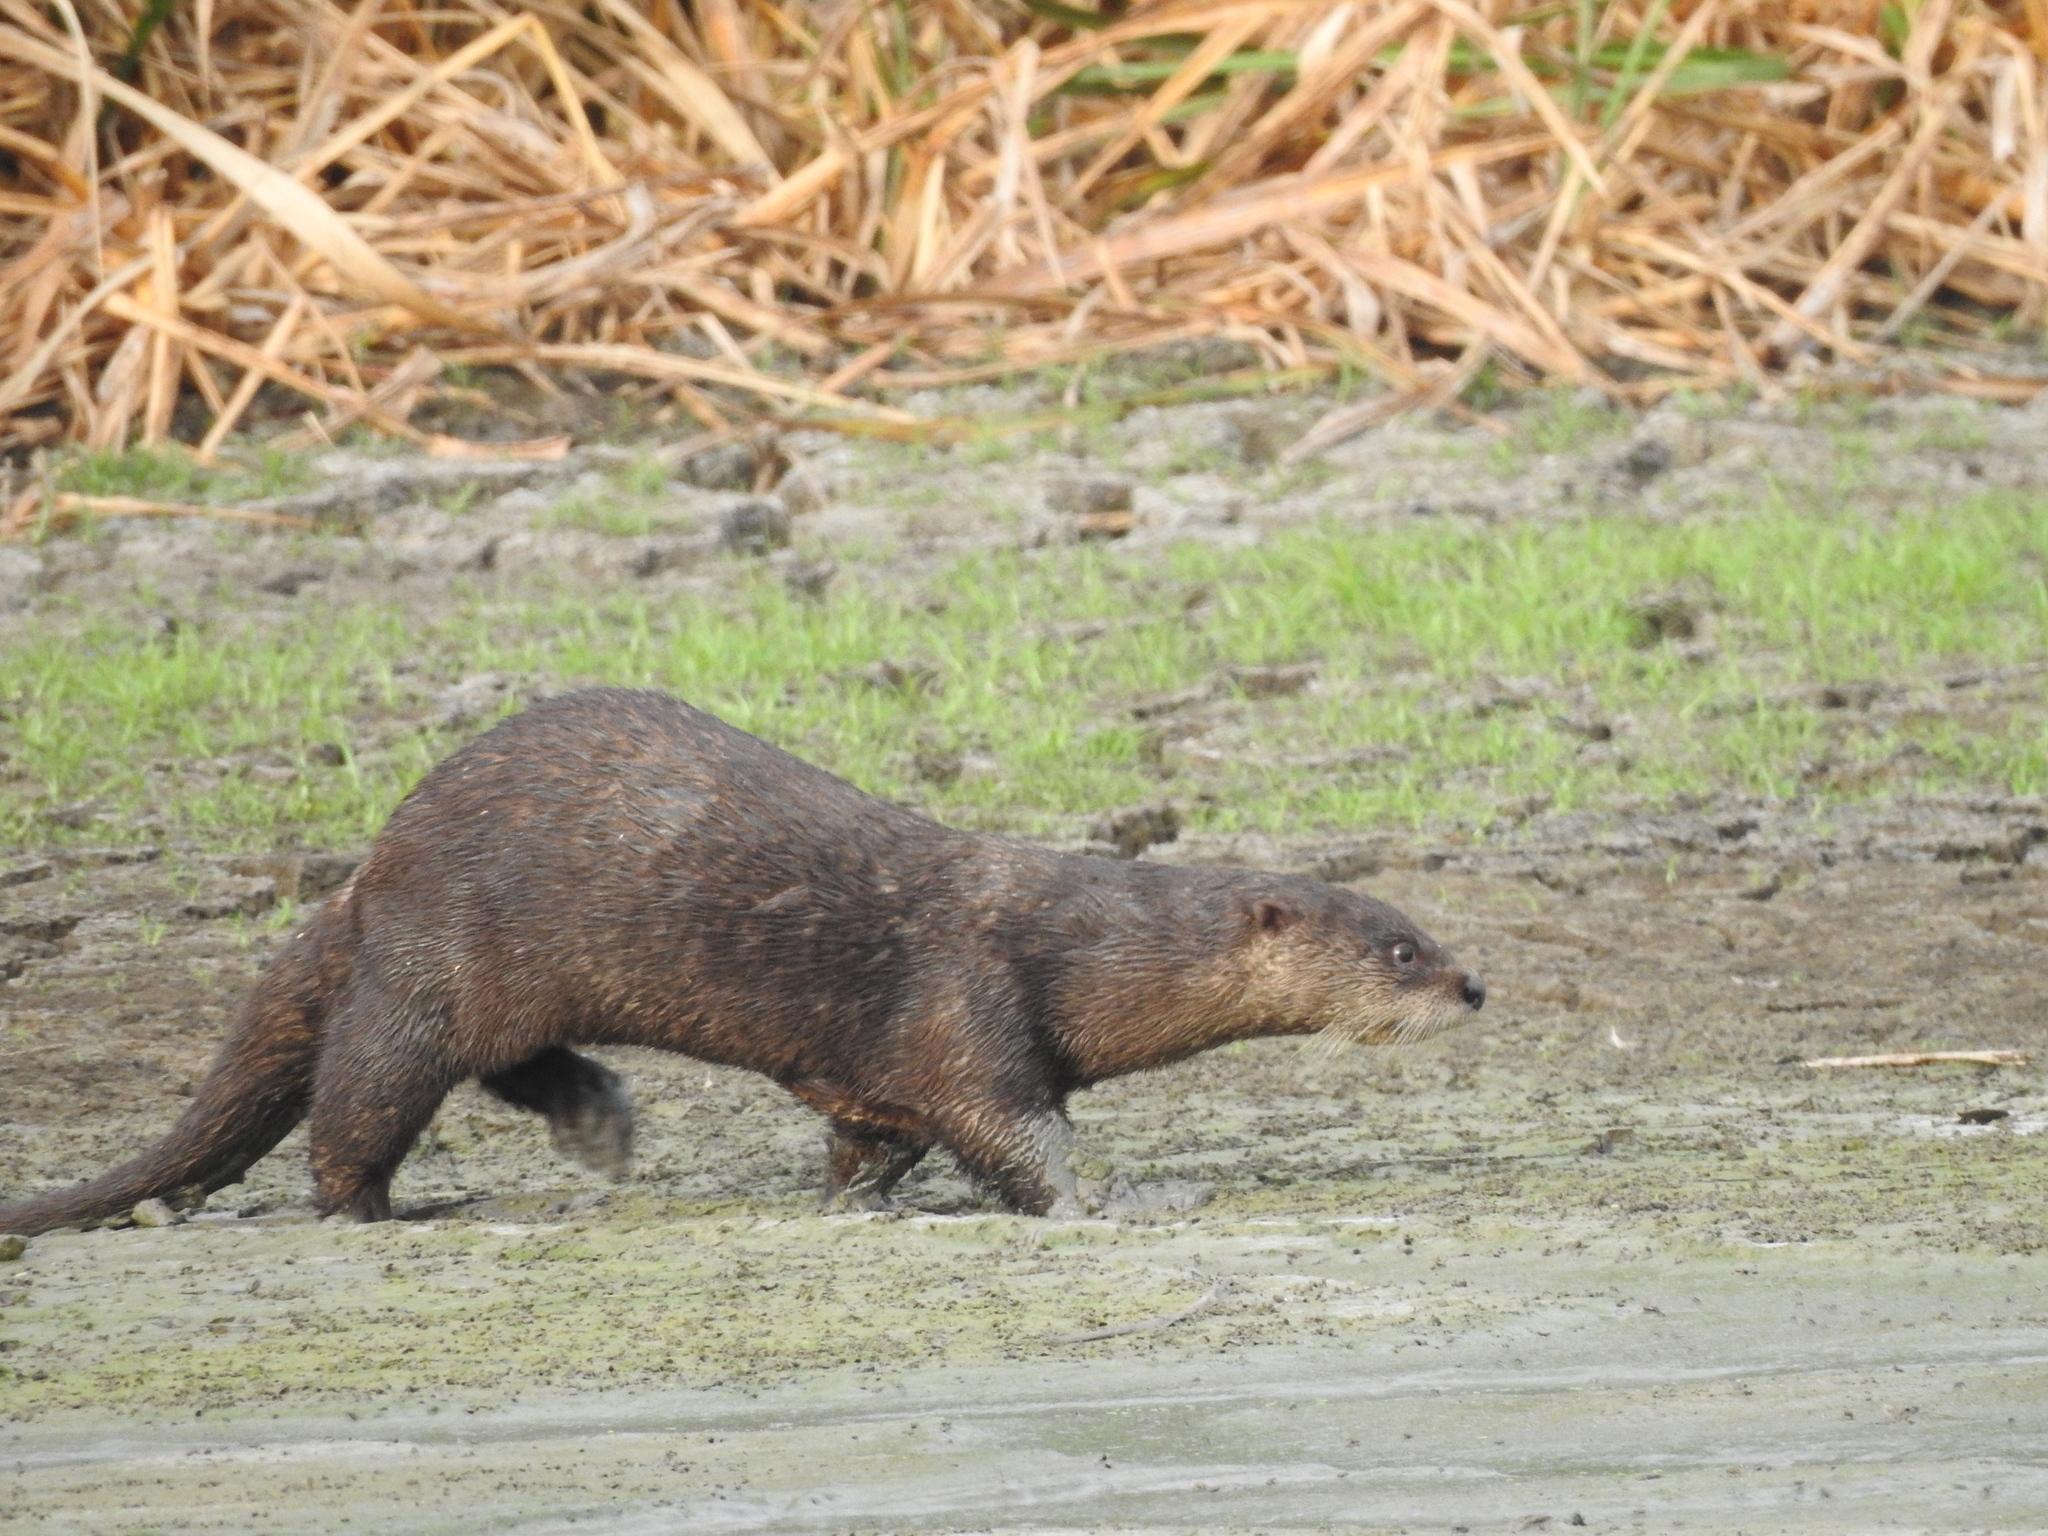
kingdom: Animalia
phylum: Chordata
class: Mammalia
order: Carnivora
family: Mustelidae
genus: Lontra
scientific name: Lontra canadensis
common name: North american river otter
